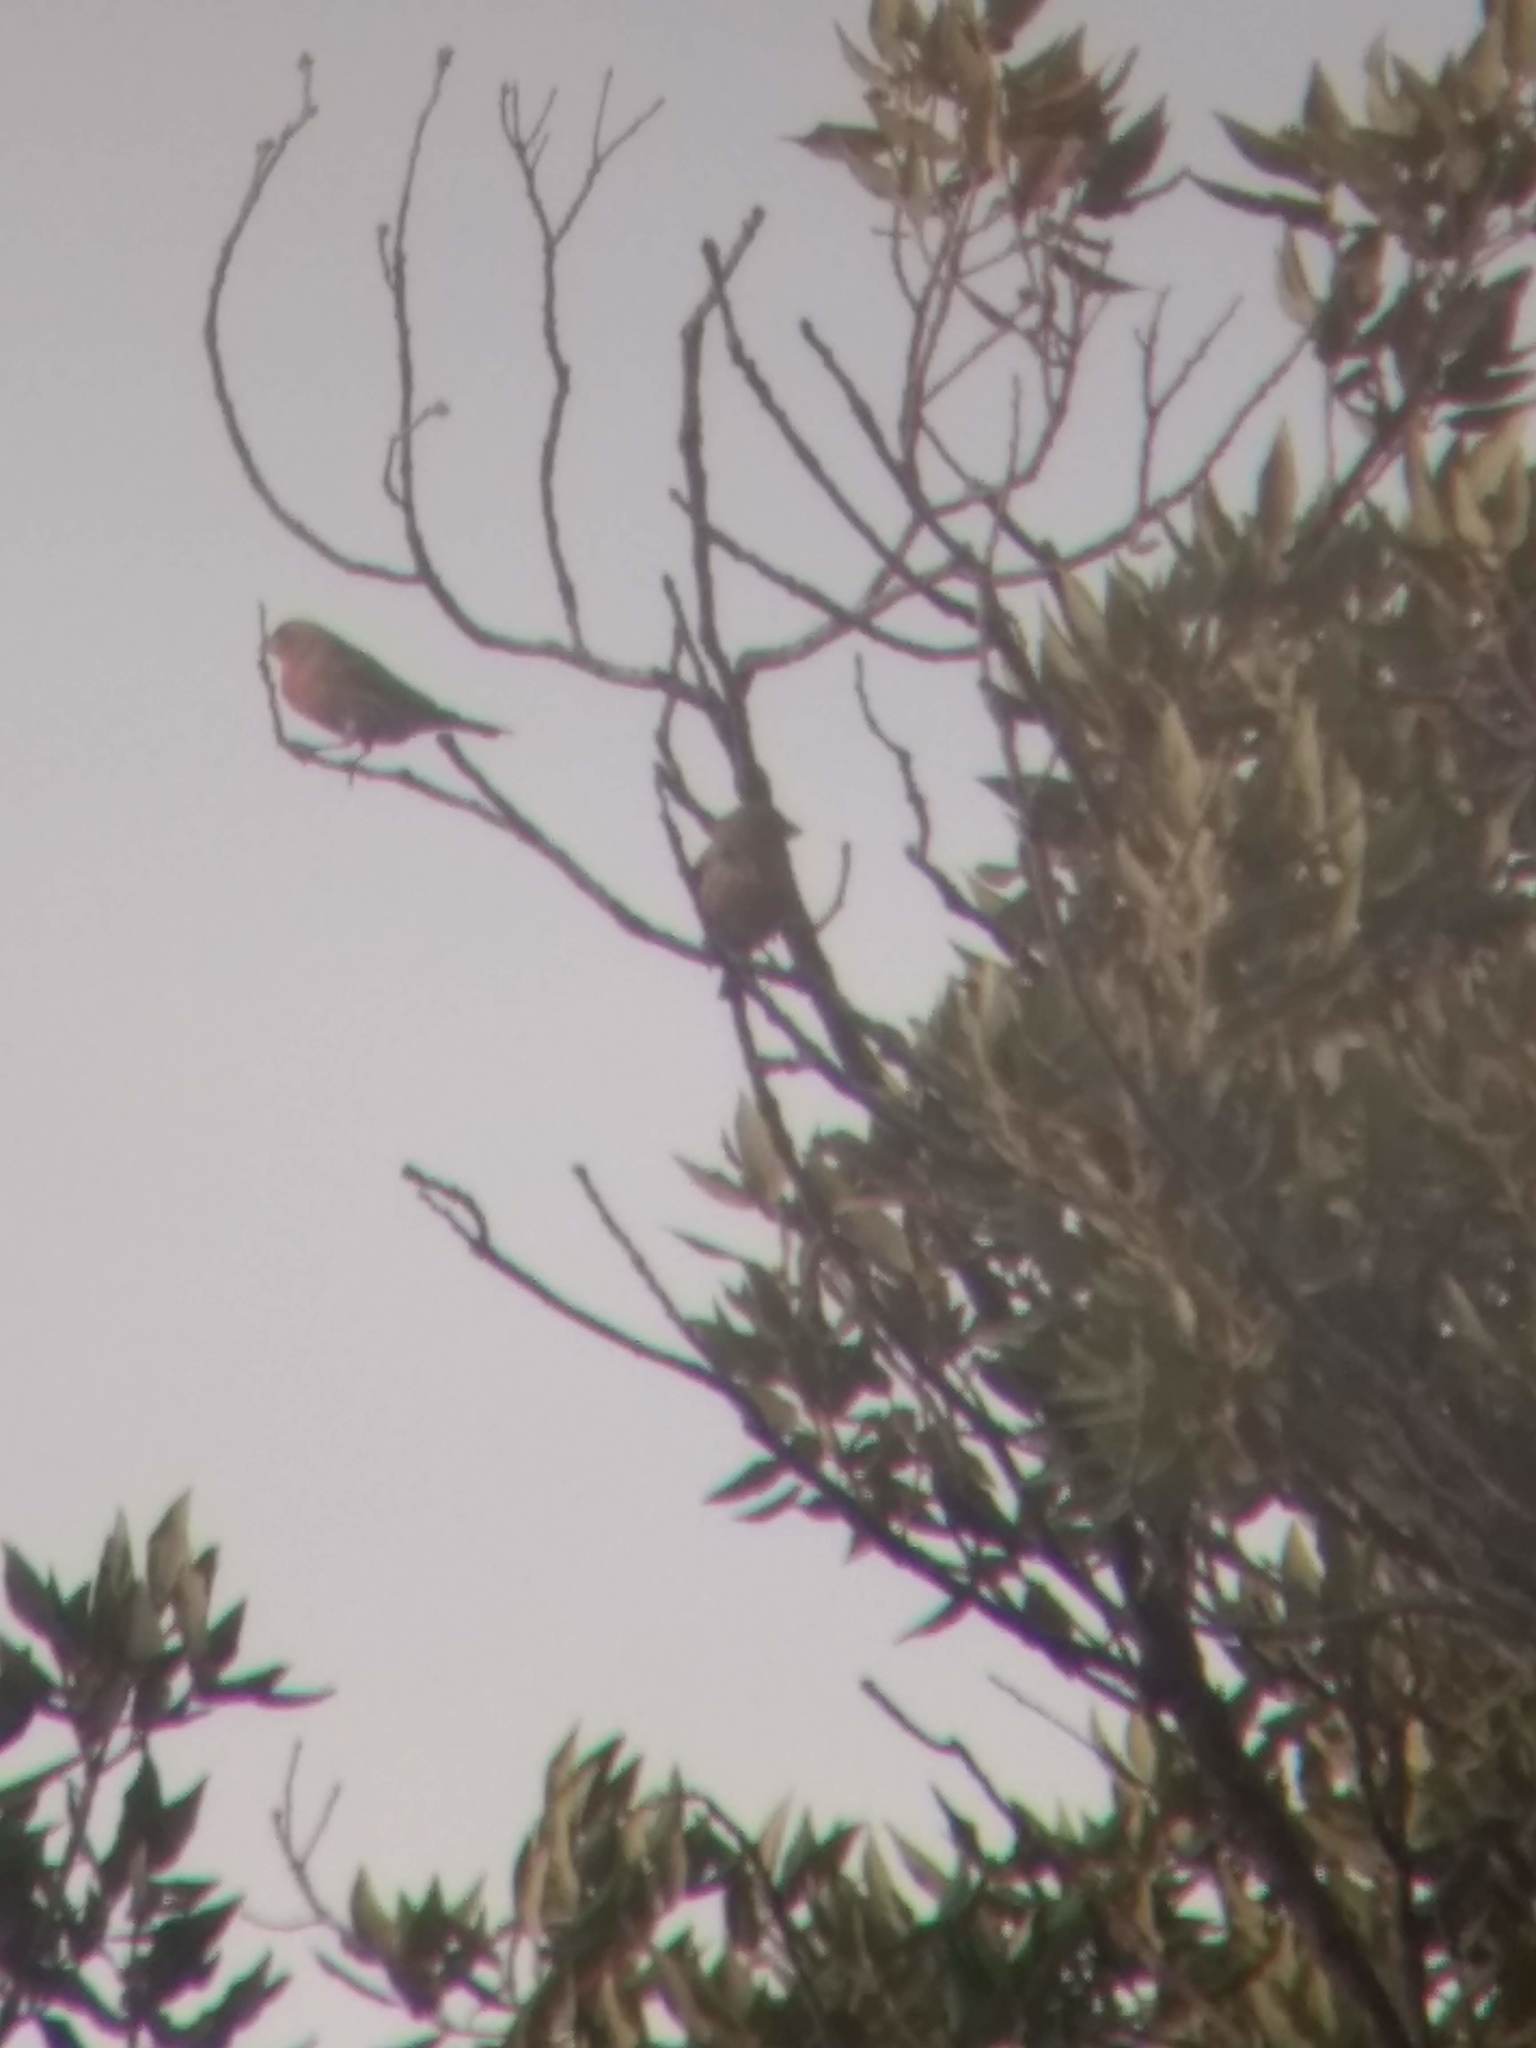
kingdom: Animalia
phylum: Chordata
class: Aves
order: Passeriformes
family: Fringillidae
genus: Haemorhous
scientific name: Haemorhous mexicanus
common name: House finch
